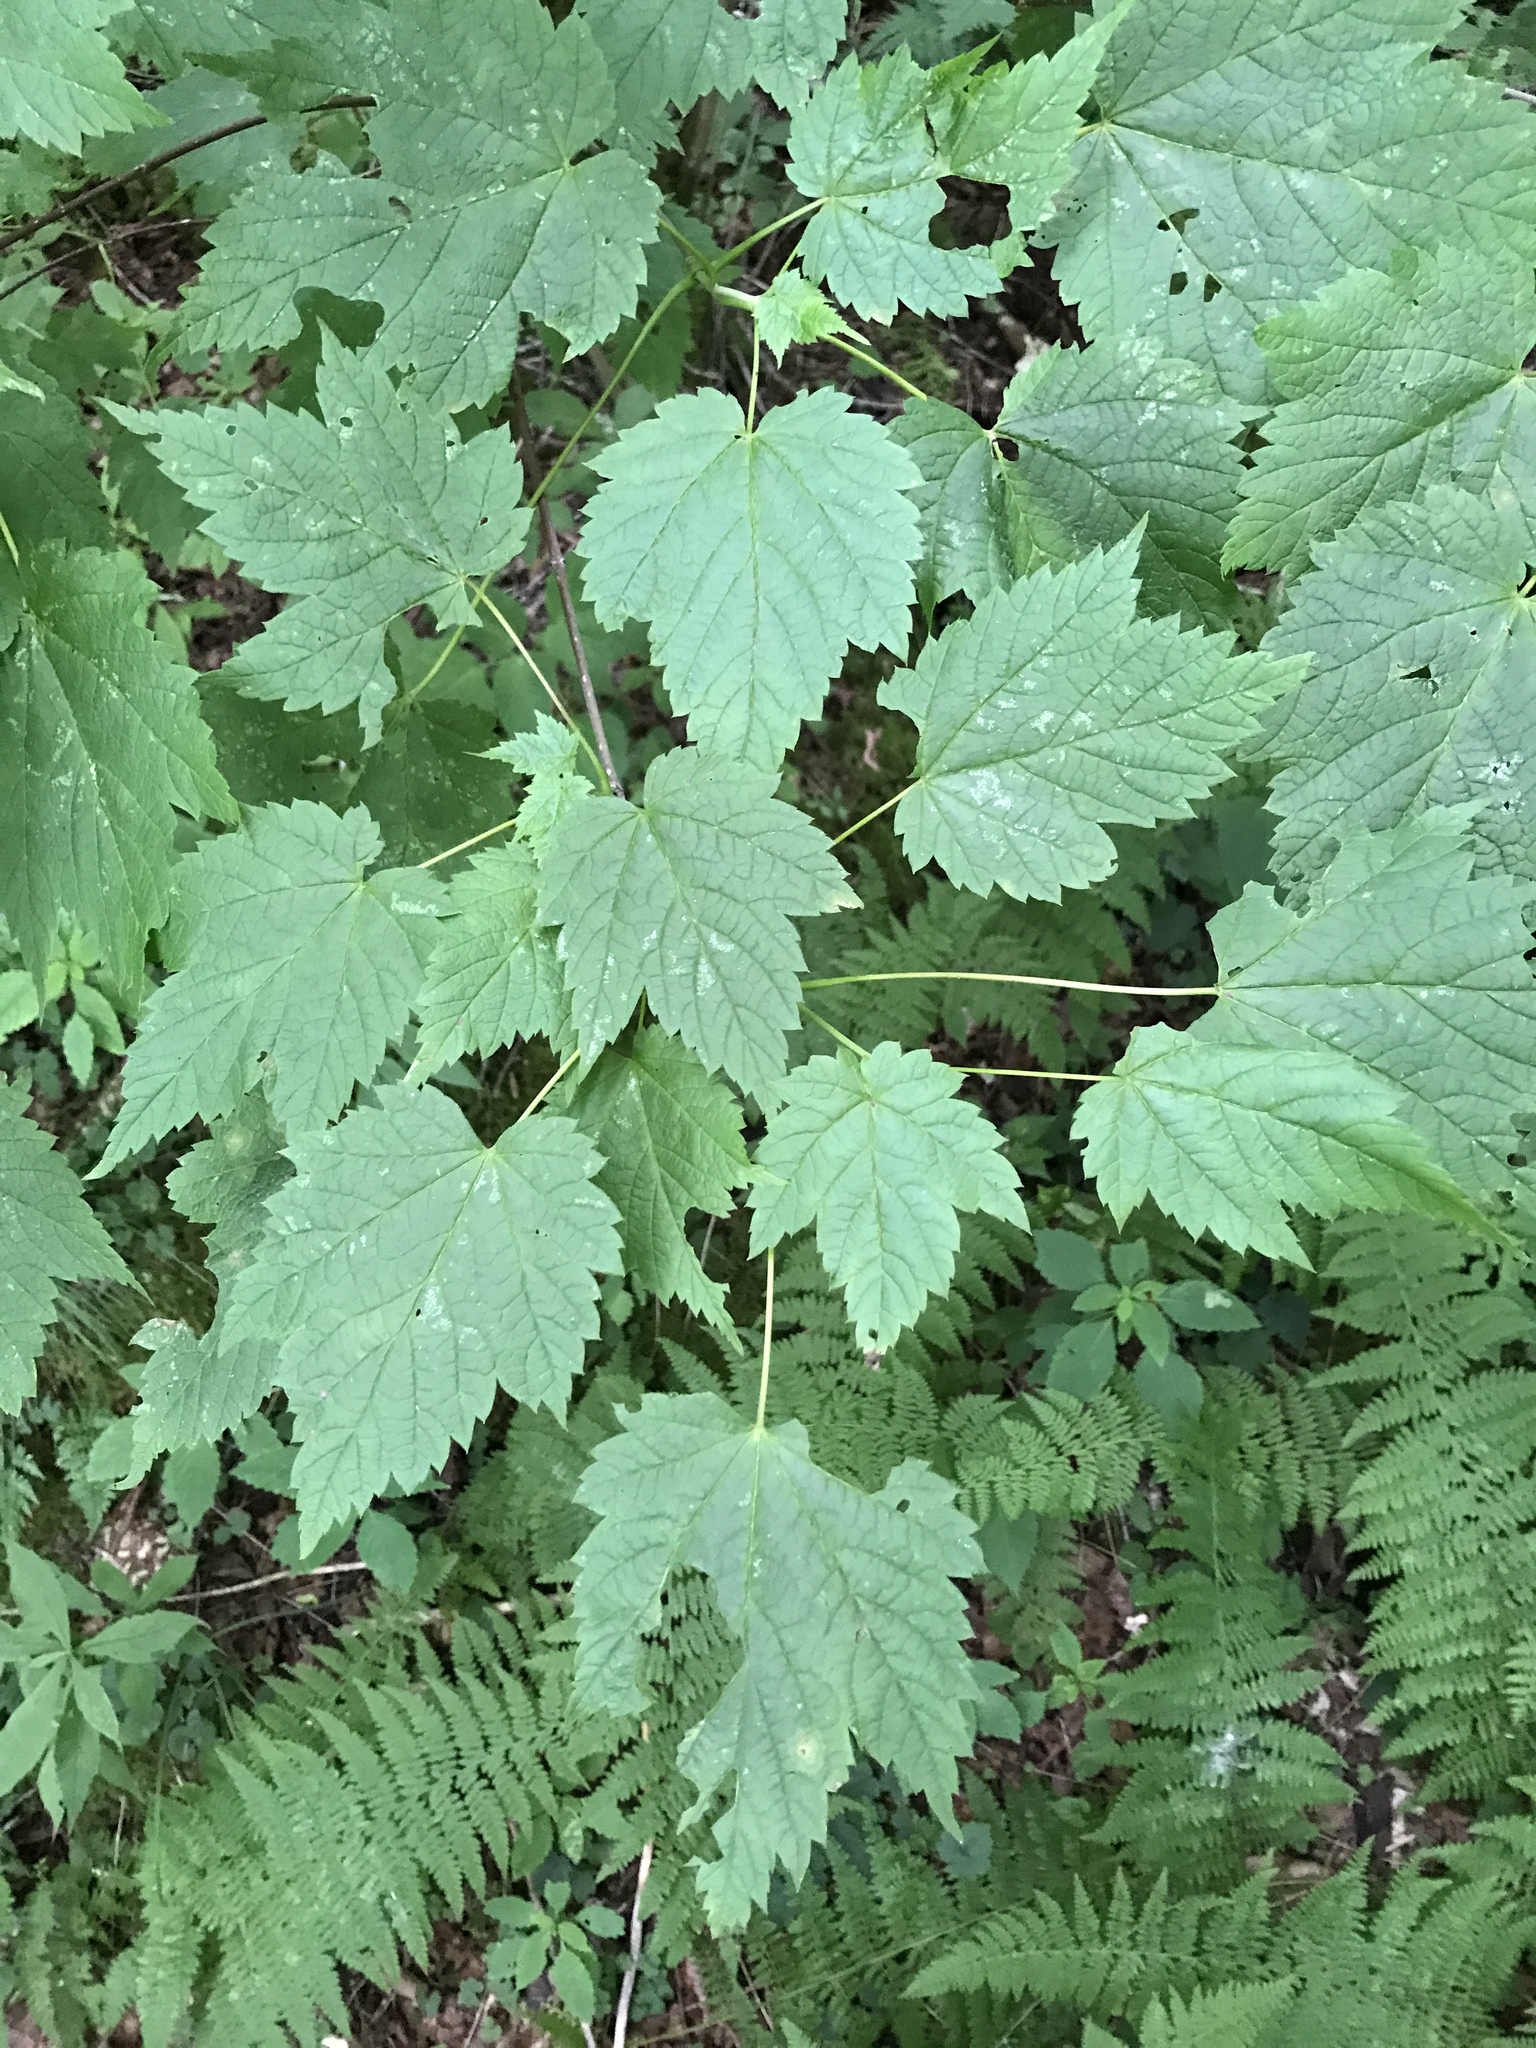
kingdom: Plantae
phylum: Tracheophyta
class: Magnoliopsida
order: Sapindales
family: Sapindaceae
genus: Acer
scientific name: Acer spicatum
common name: Mountain maple
